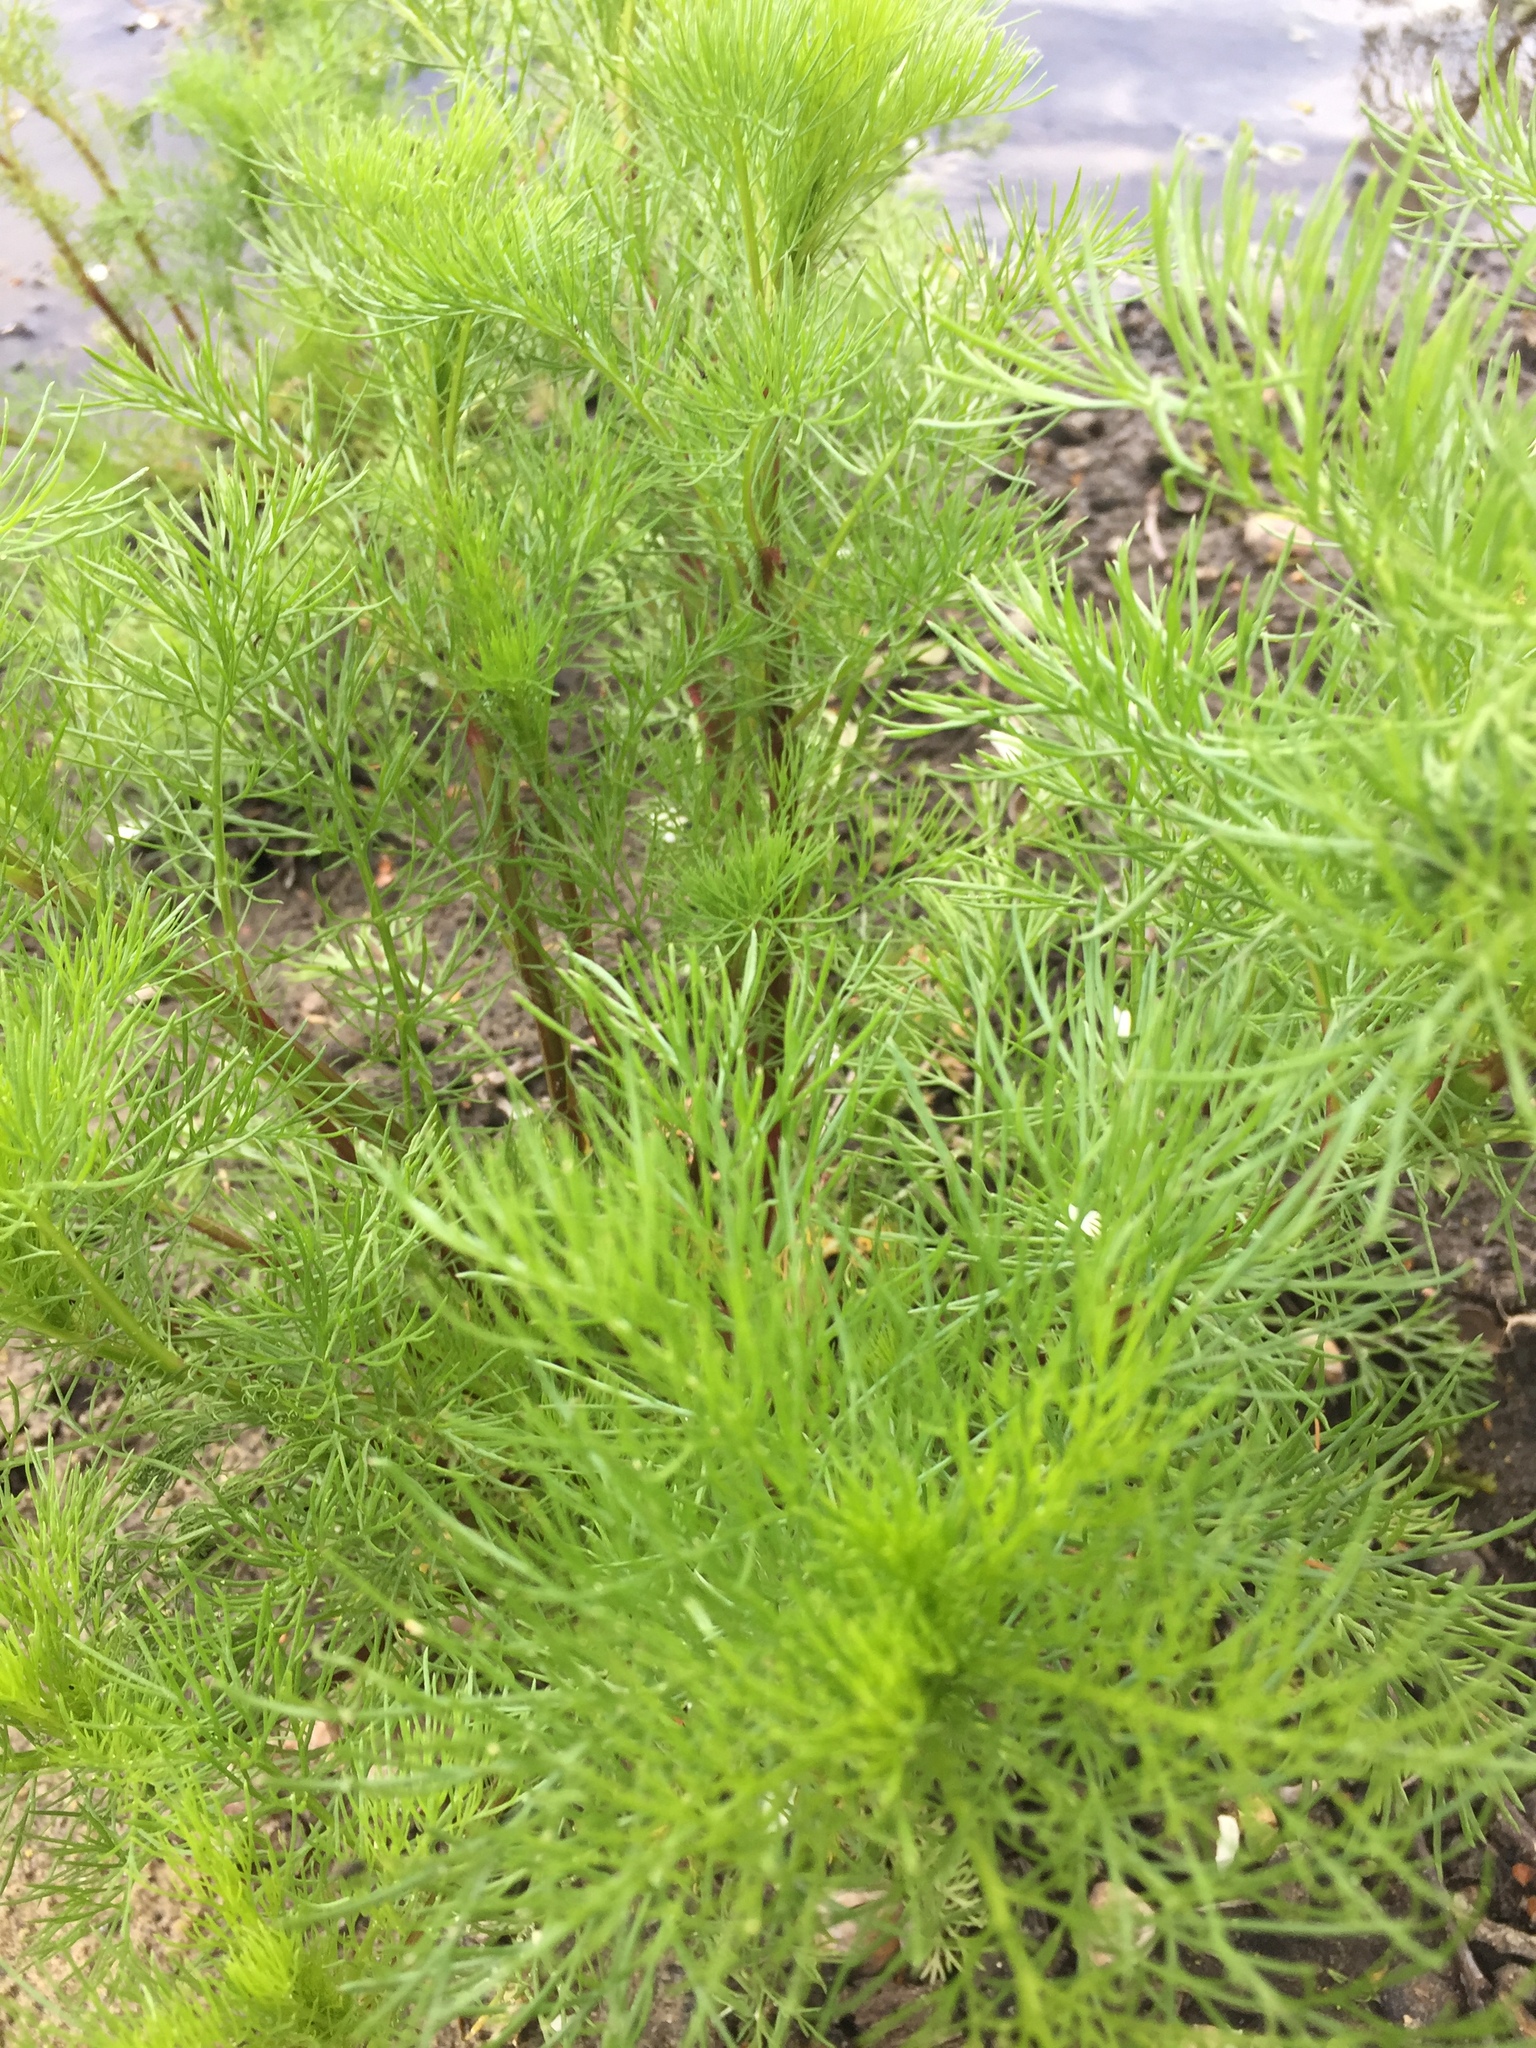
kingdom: Plantae
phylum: Tracheophyta
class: Magnoliopsida
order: Asterales
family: Asteraceae
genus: Tripleurospermum
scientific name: Tripleurospermum inodorum
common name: Scentless mayweed
